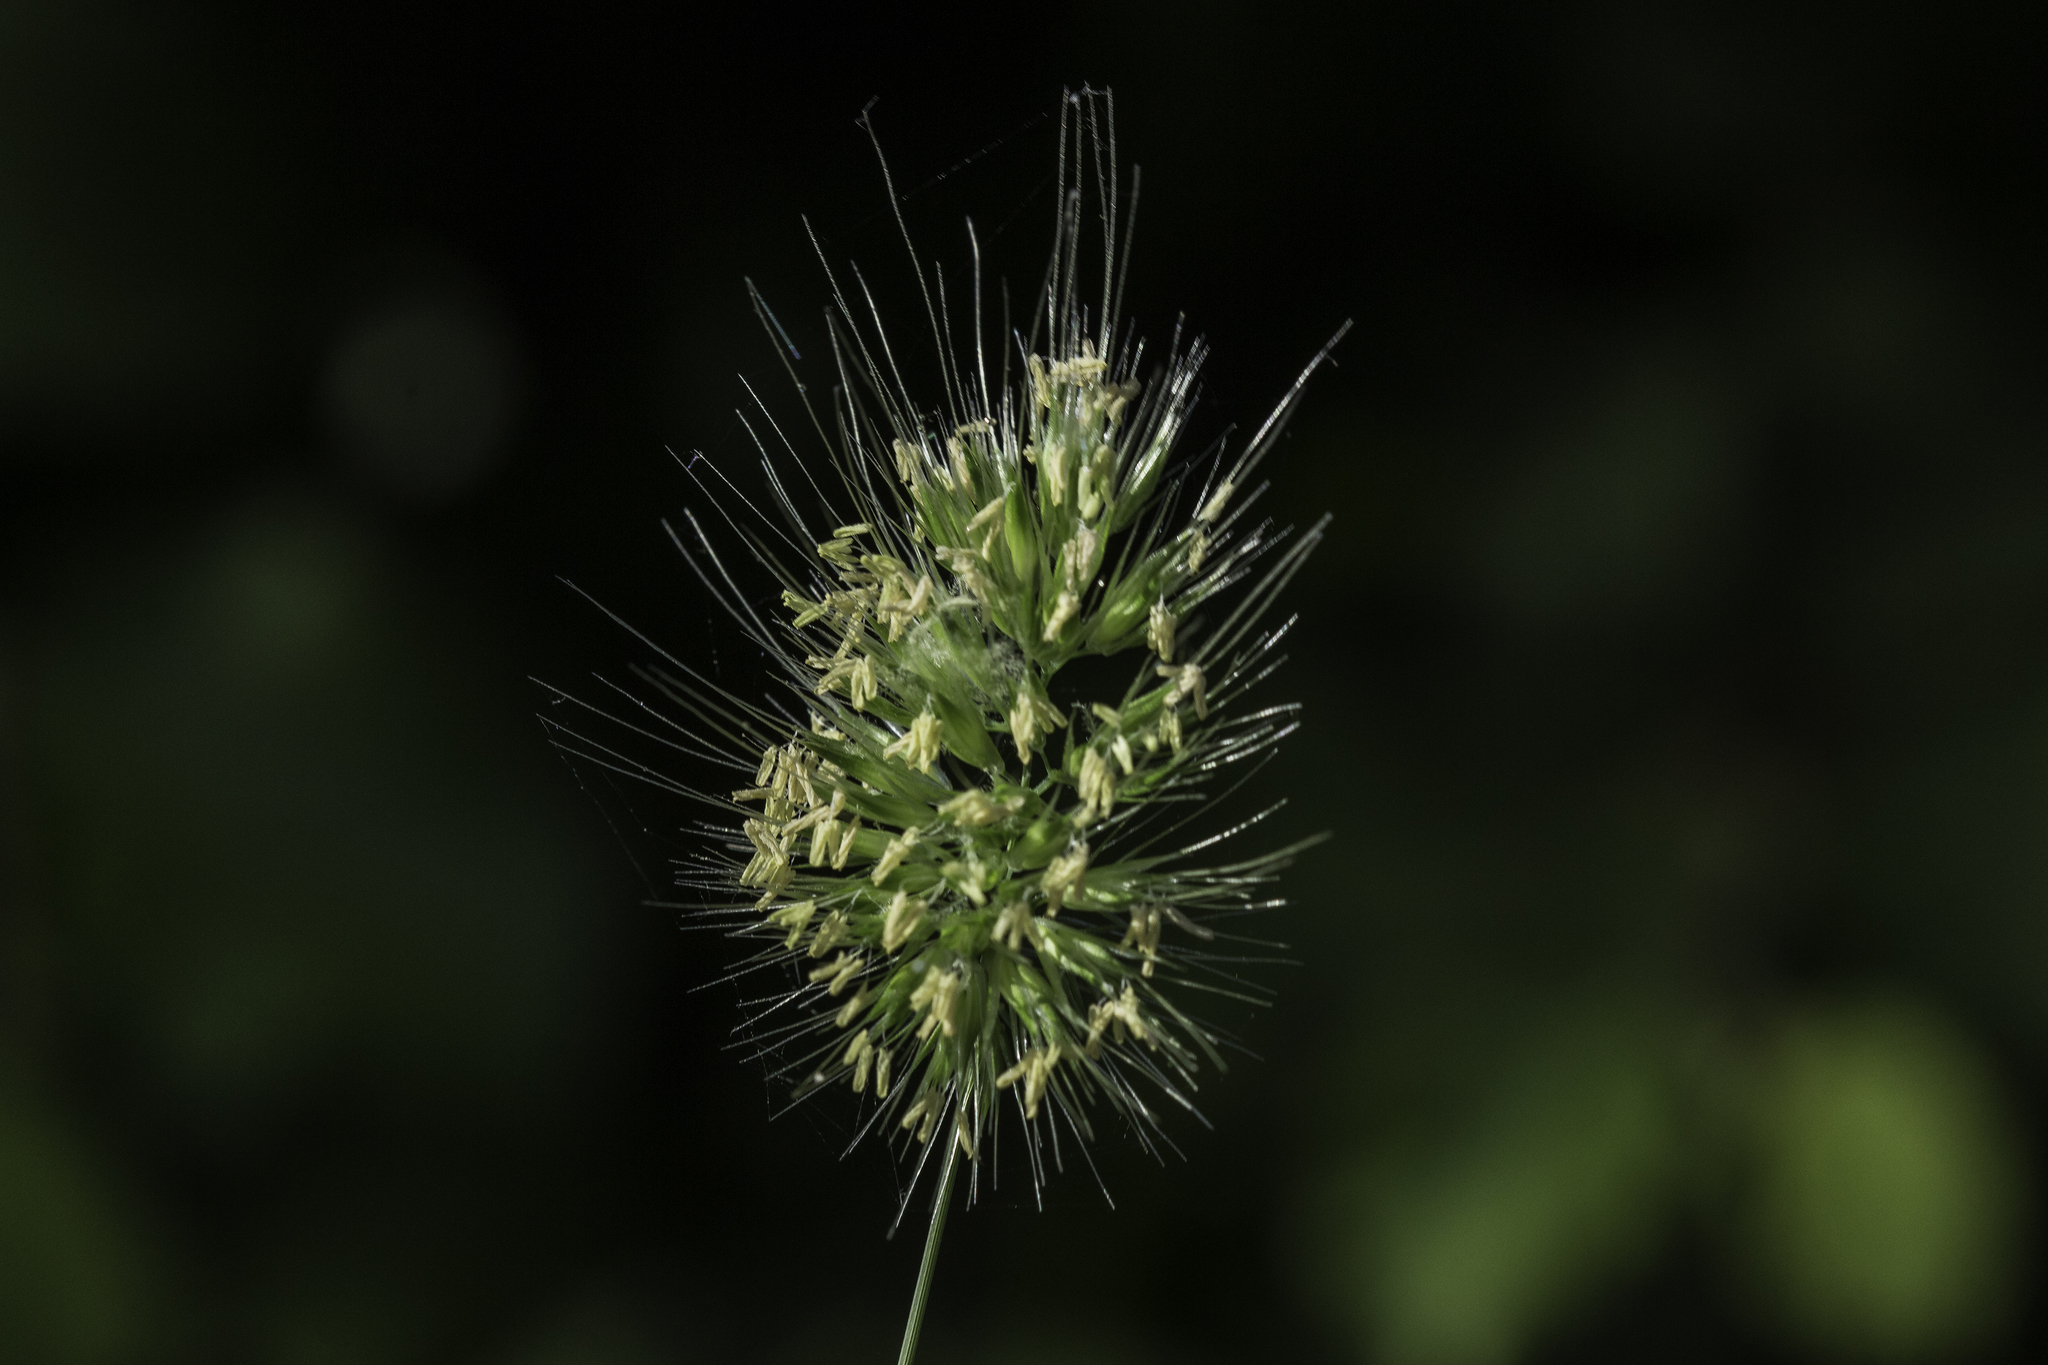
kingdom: Plantae
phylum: Tracheophyta
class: Liliopsida
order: Poales
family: Poaceae
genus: Cynosurus
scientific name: Cynosurus echinatus
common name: Rough dog's-tail
